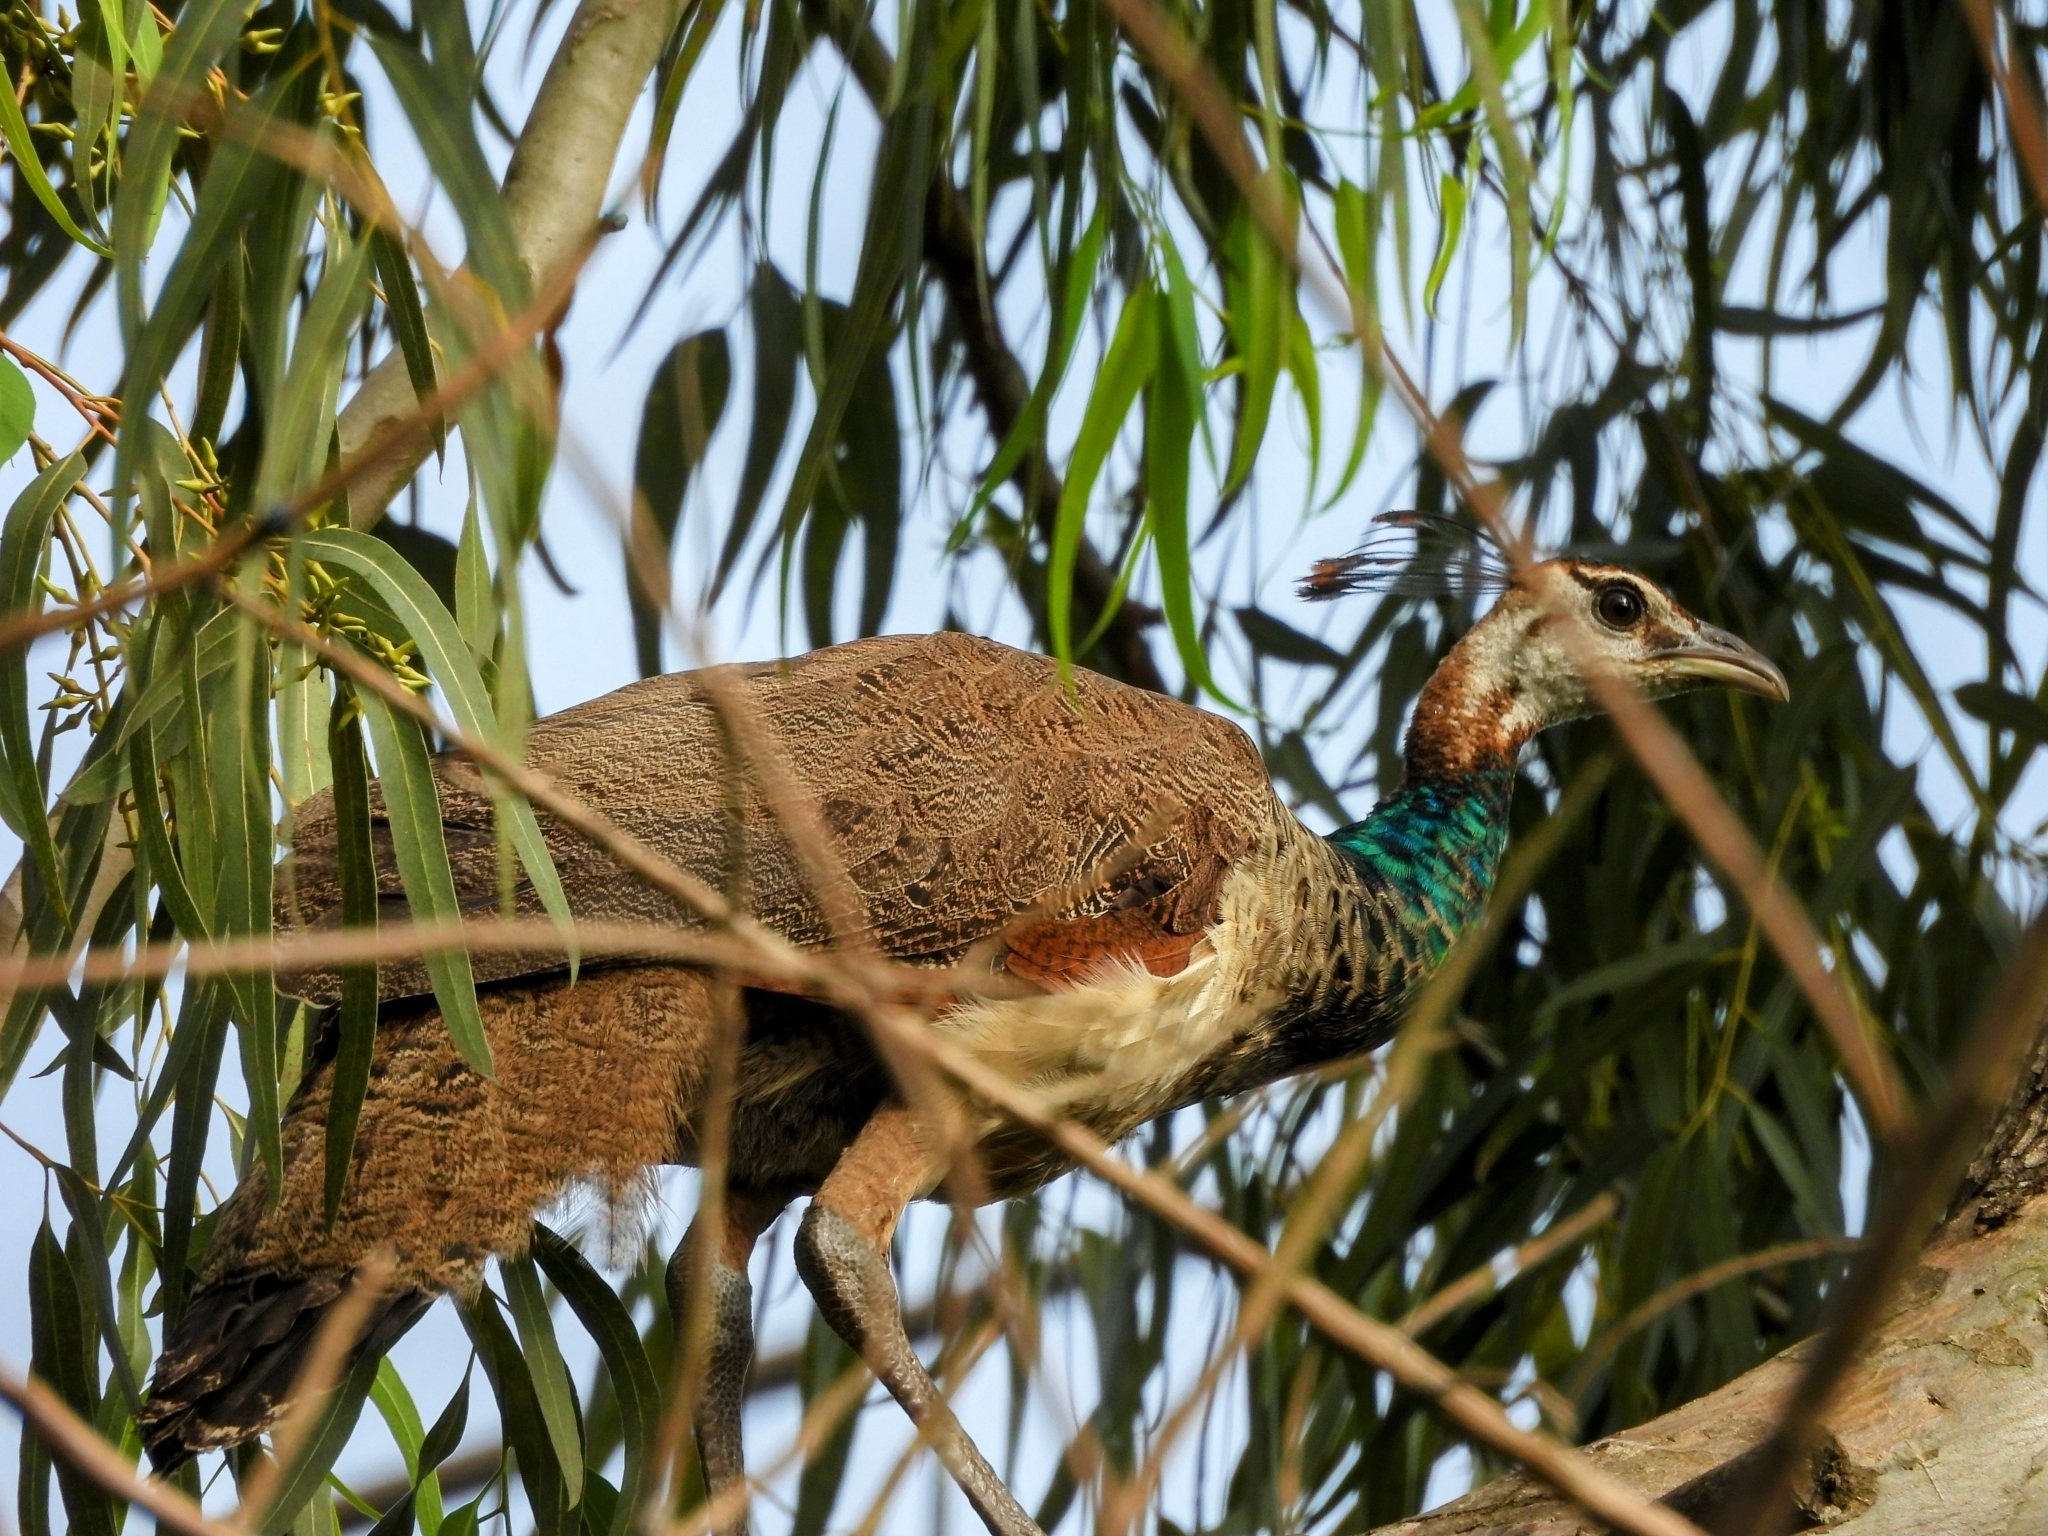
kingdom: Animalia
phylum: Chordata
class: Aves
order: Galliformes
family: Phasianidae
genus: Pavo
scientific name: Pavo cristatus
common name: Indian peafowl
